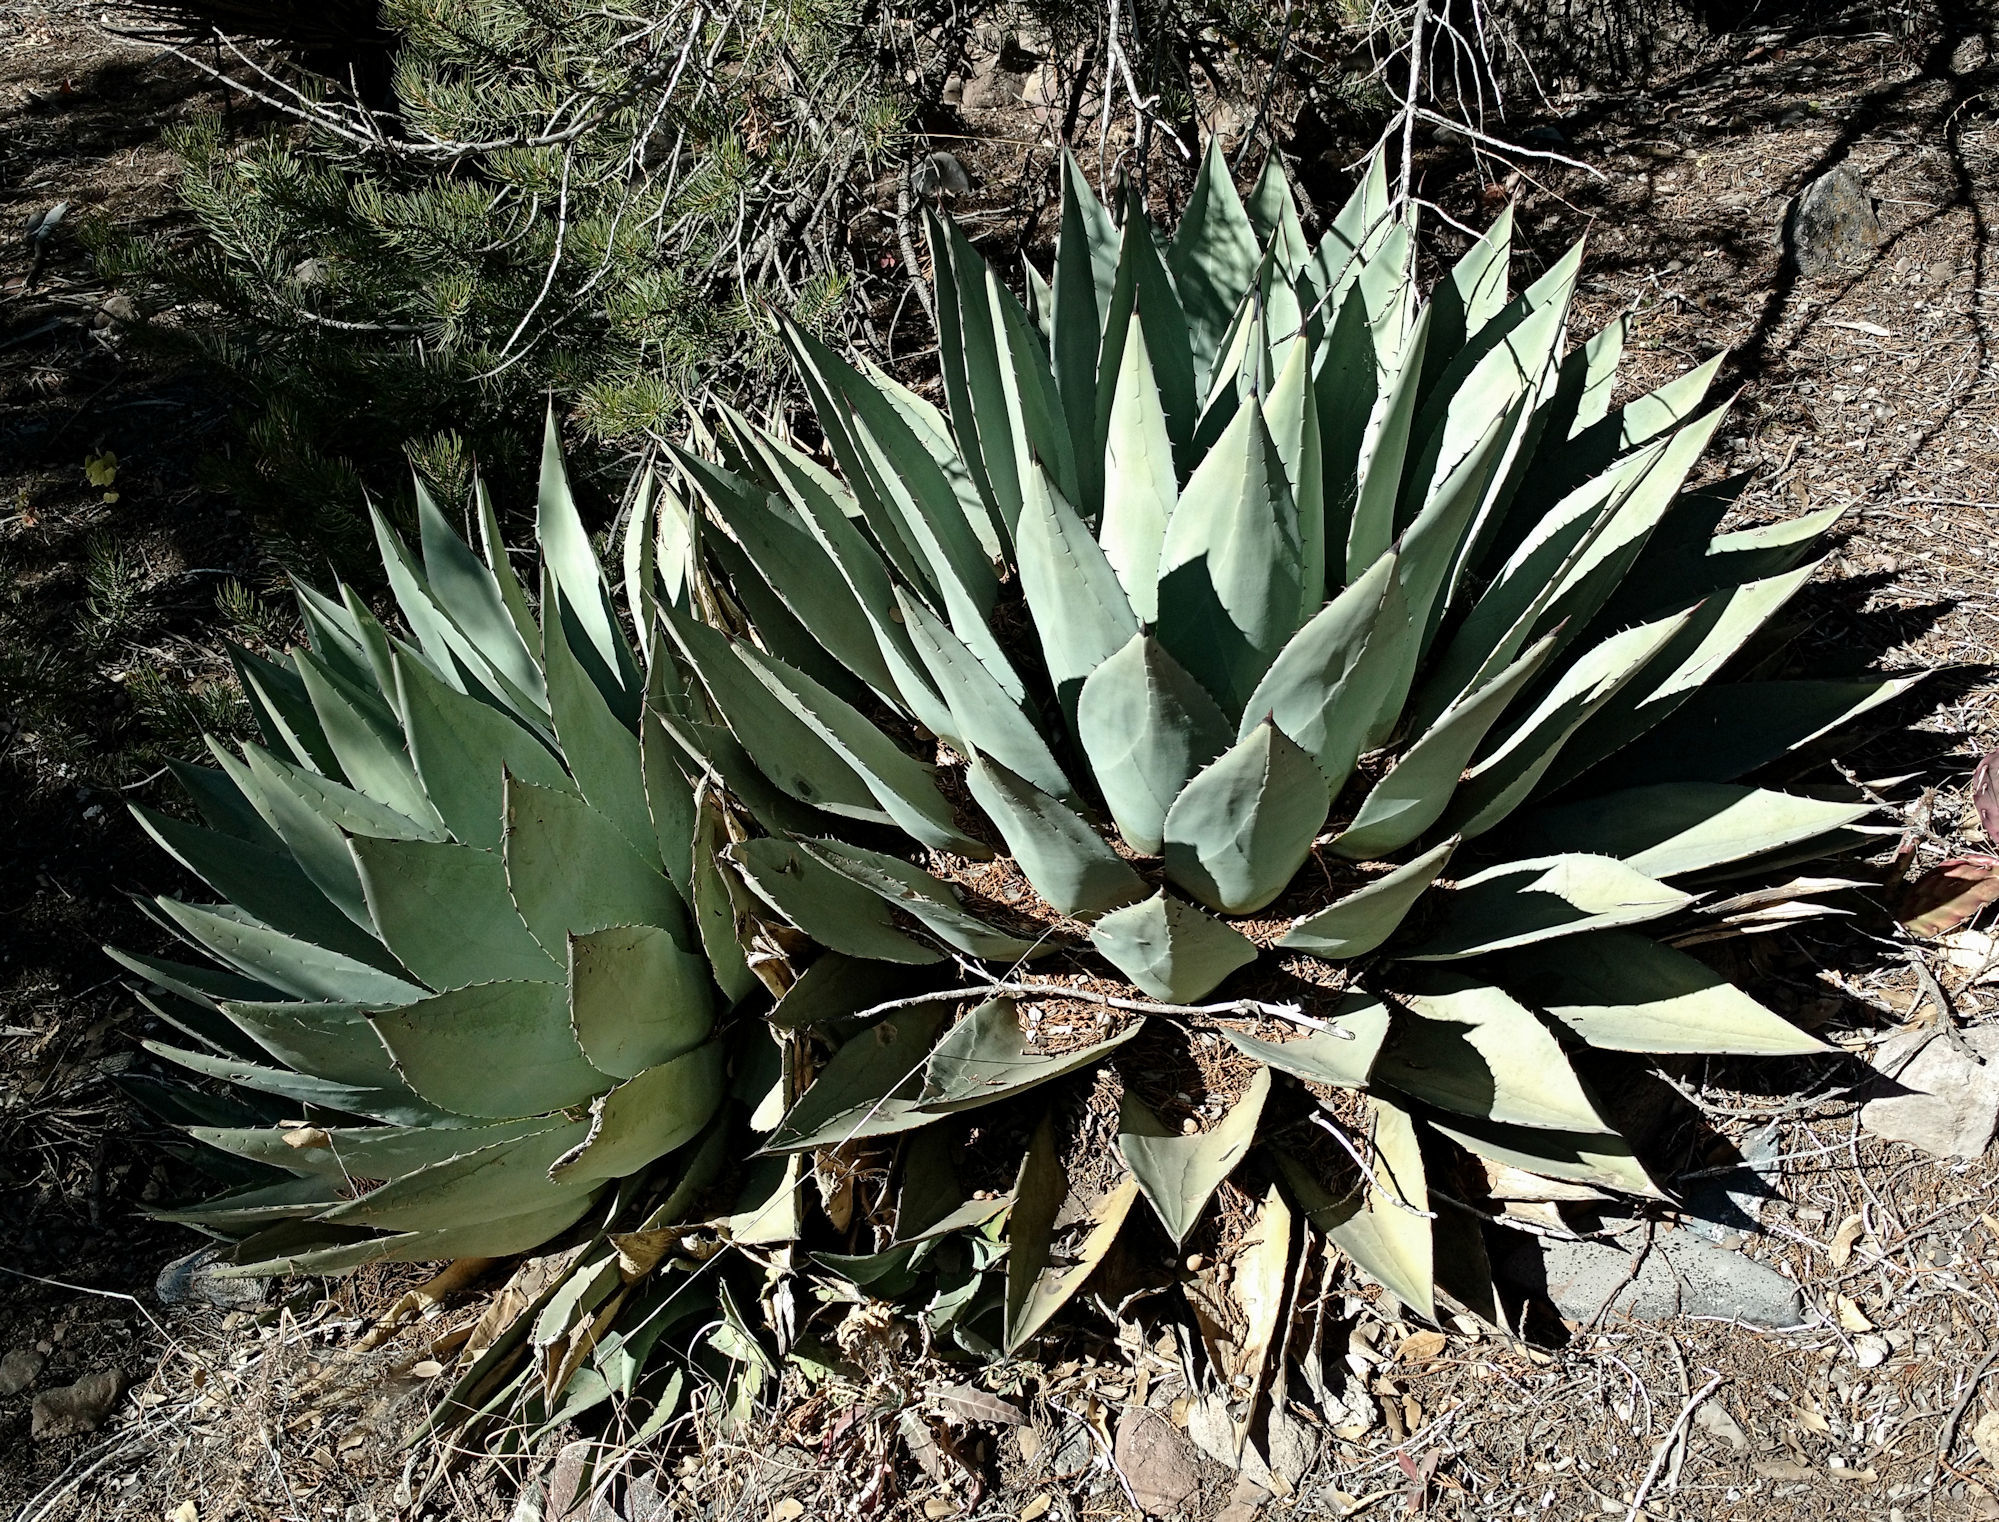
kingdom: Plantae
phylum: Tracheophyta
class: Liliopsida
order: Asparagales
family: Asparagaceae
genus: Agave
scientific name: Agave parryi
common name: Parry's agave
